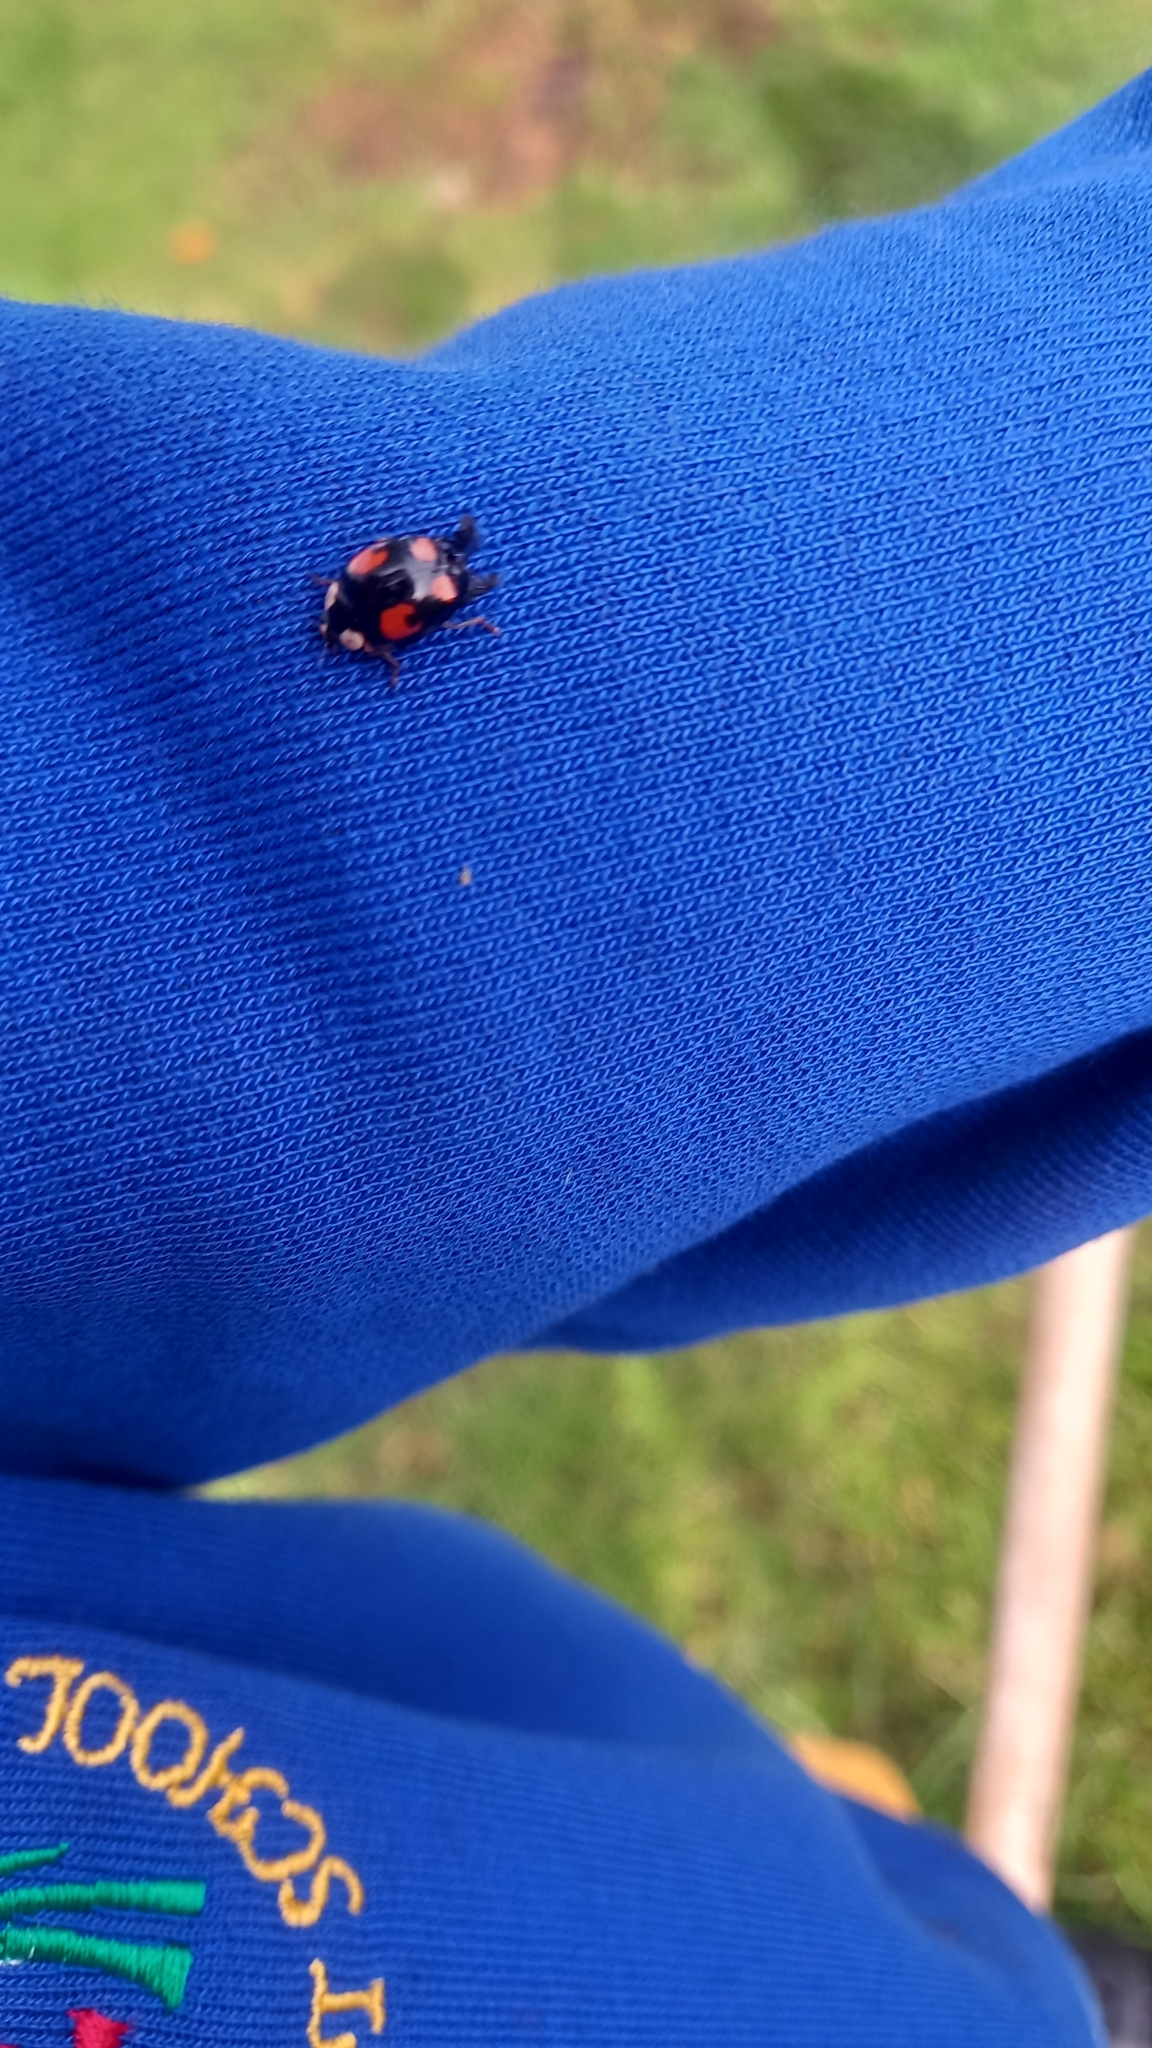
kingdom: Animalia
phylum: Arthropoda
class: Insecta
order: Coleoptera
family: Coccinellidae
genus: Harmonia
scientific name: Harmonia axyridis
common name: Harlequin ladybird
